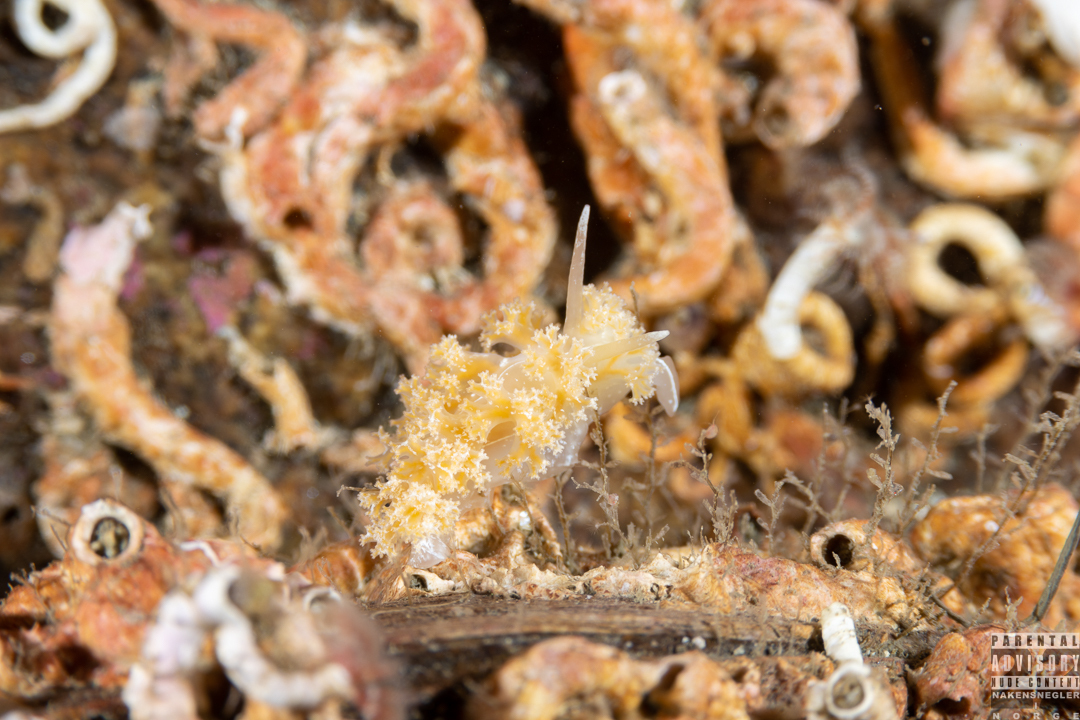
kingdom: Animalia
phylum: Mollusca
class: Gastropoda
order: Nudibranchia
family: Heroidae
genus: Hero
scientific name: Hero formosa
